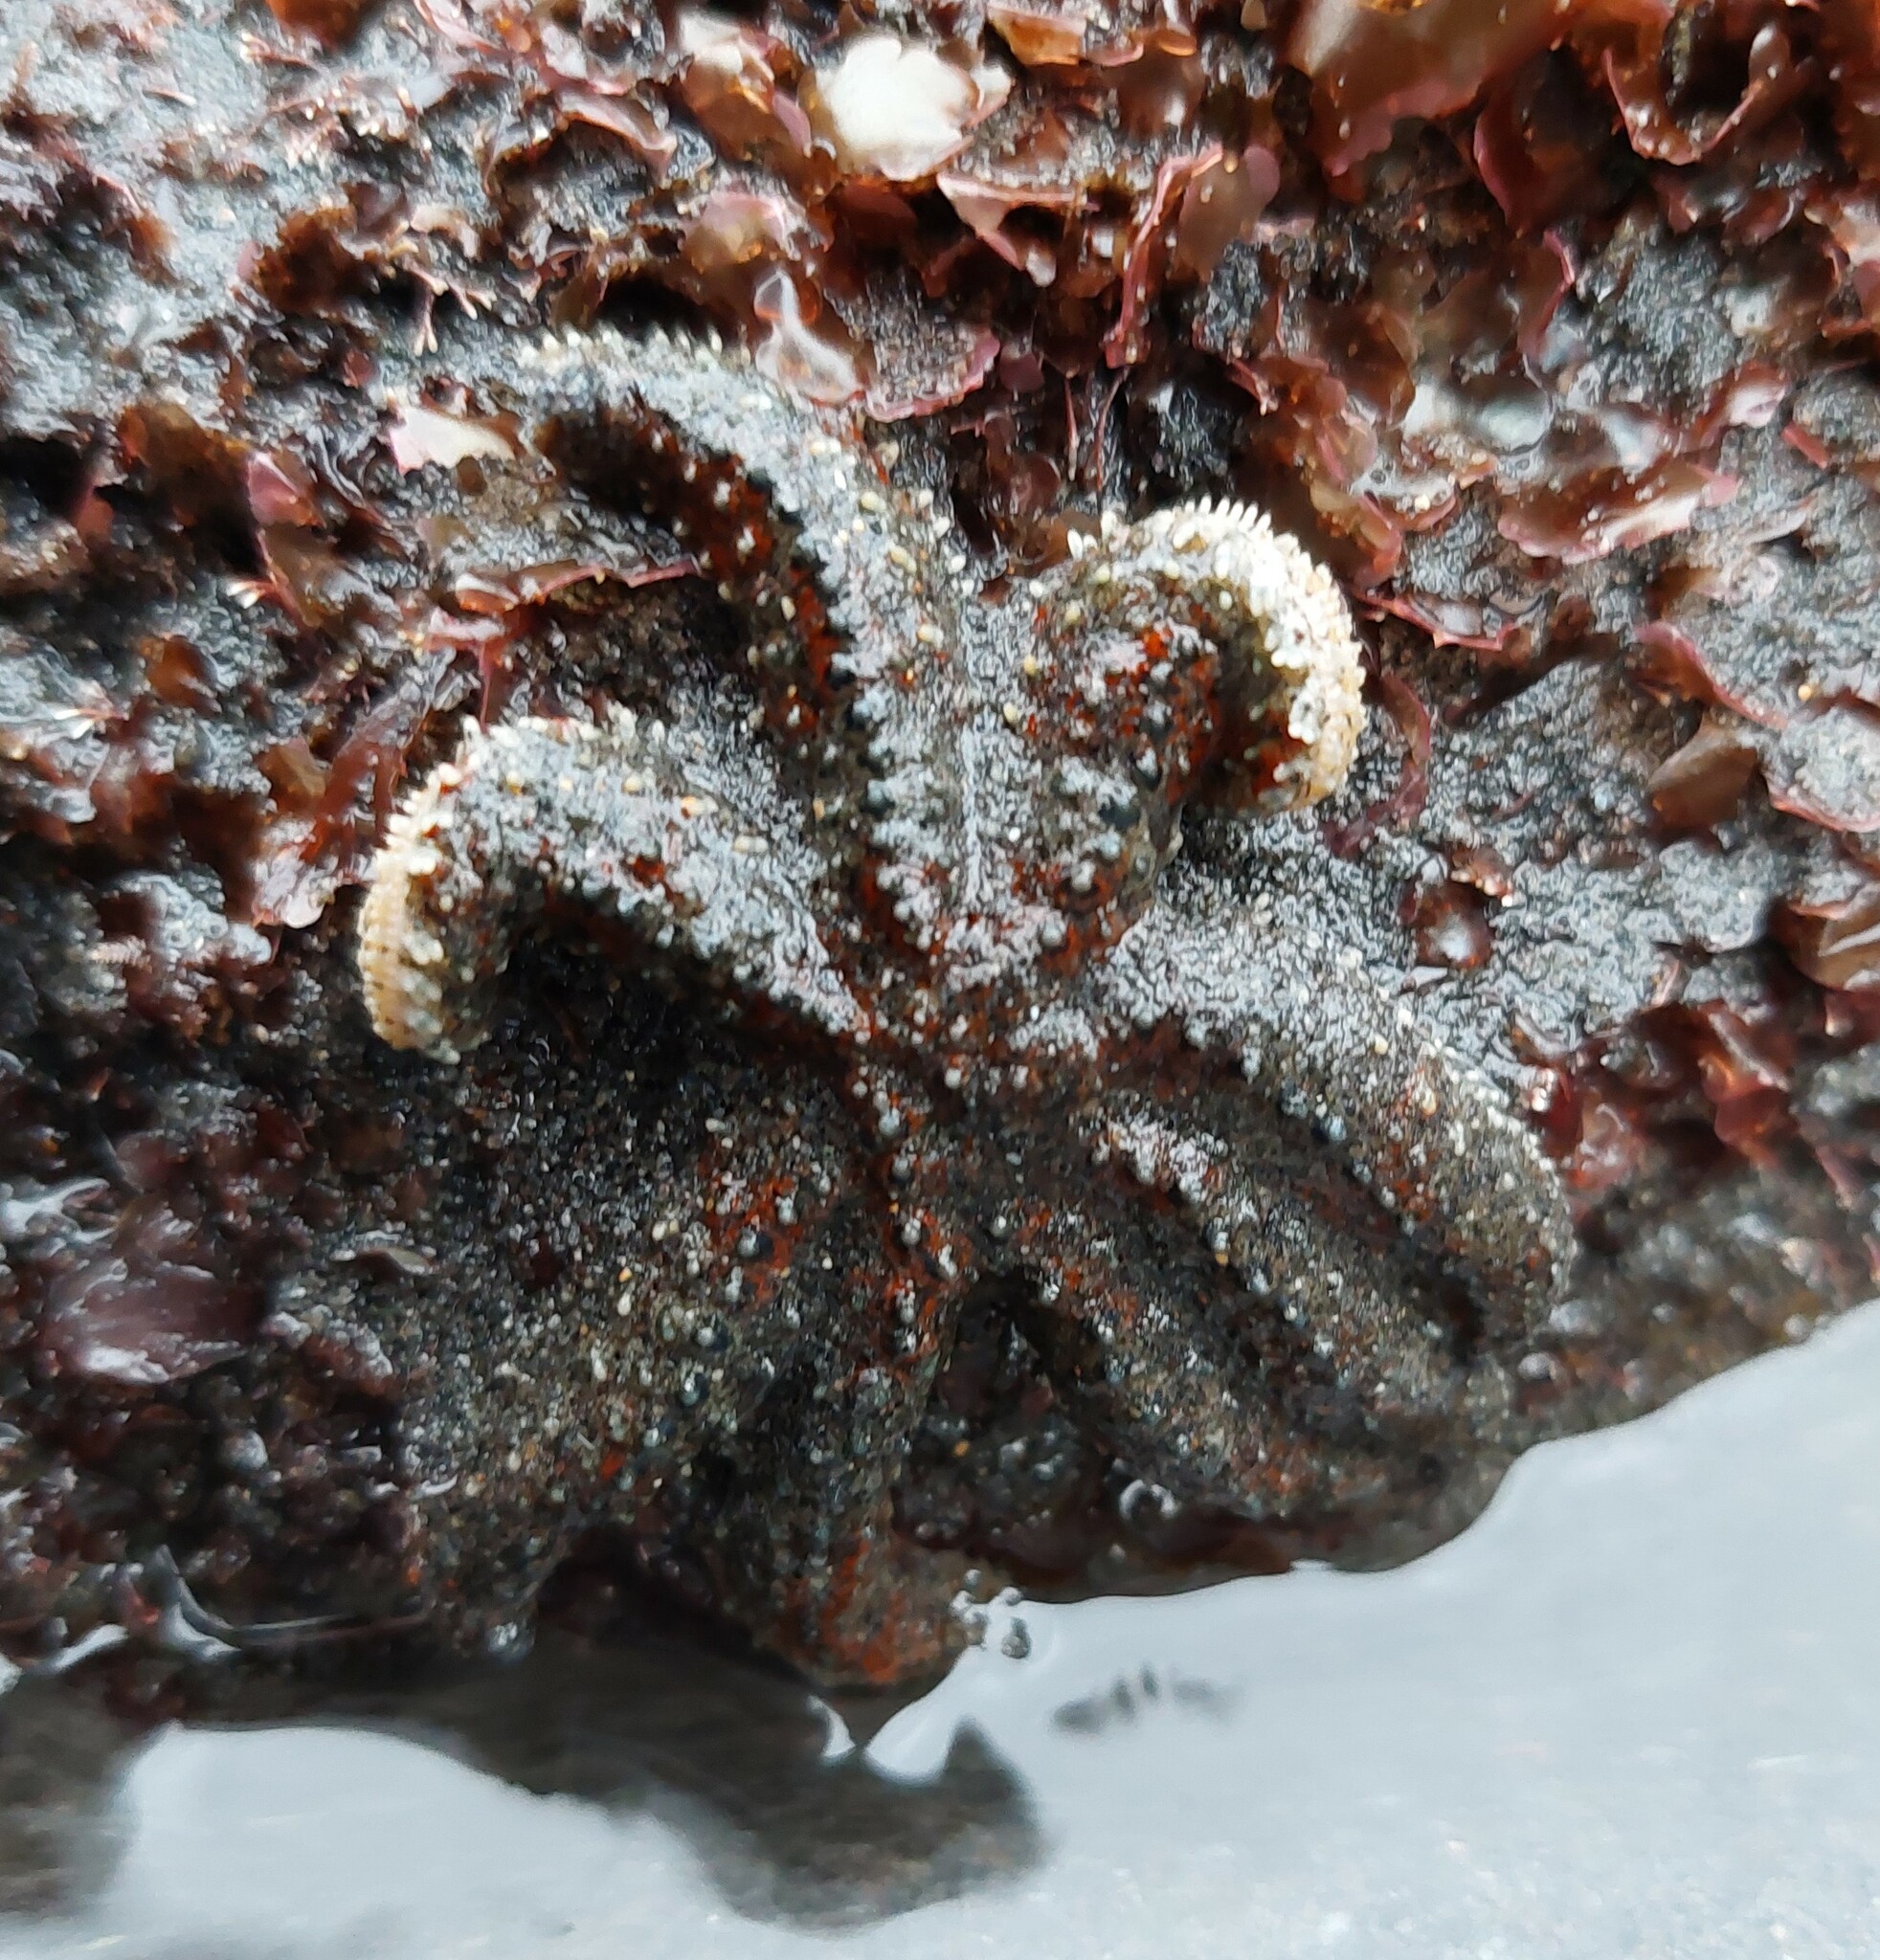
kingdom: Animalia
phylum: Echinodermata
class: Asteroidea
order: Forcipulatida
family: Asteriidae
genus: Coscinasterias
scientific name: Coscinasterias muricata
